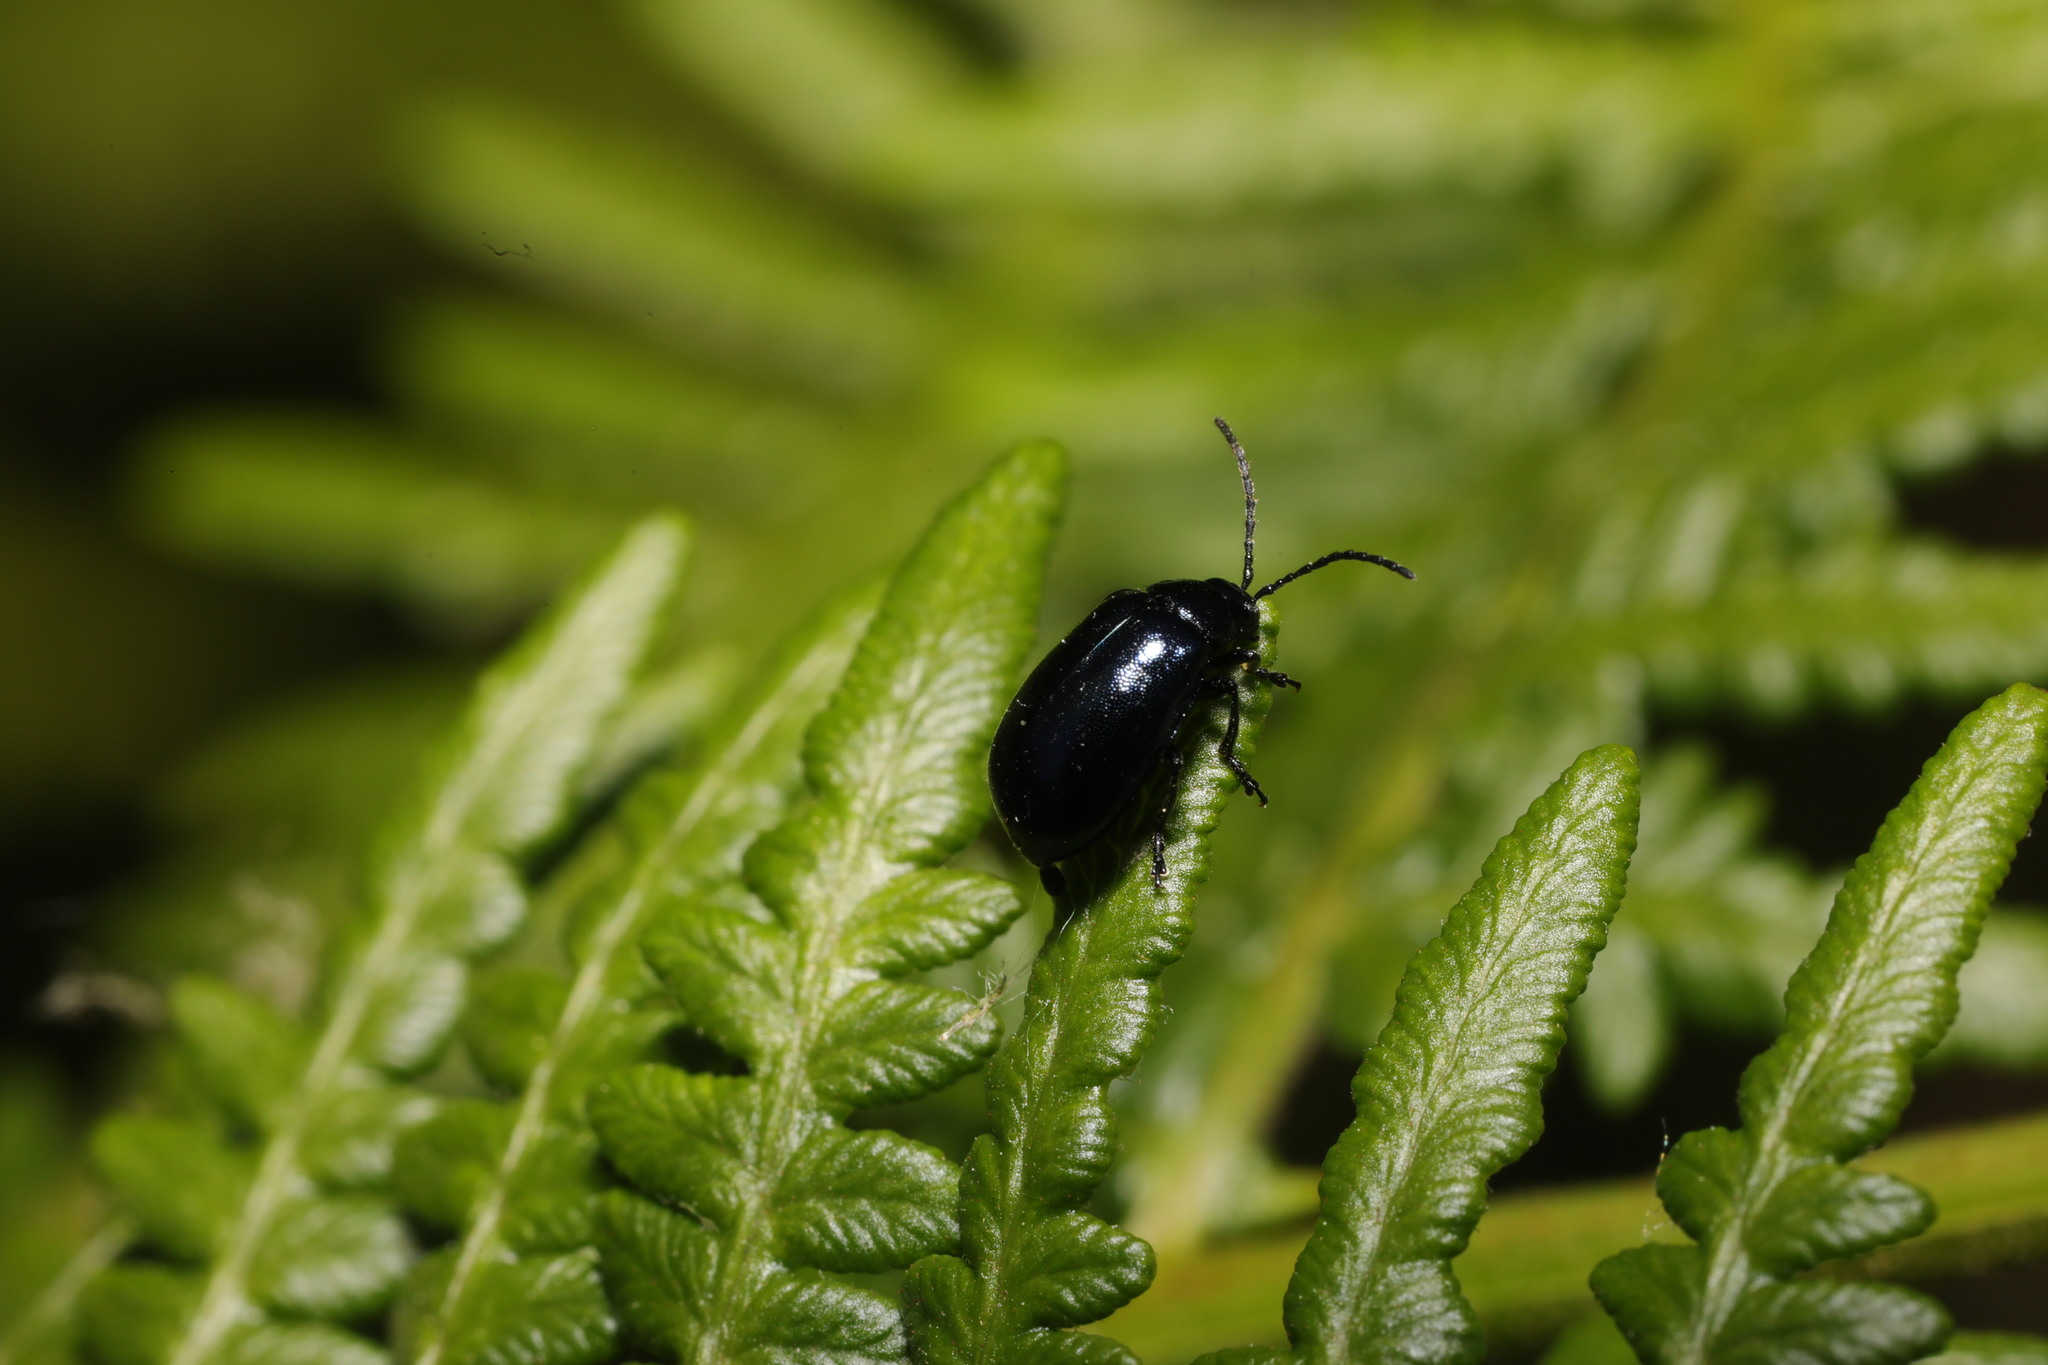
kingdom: Animalia
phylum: Arthropoda
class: Insecta
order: Coleoptera
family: Chrysomelidae
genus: Agelastica
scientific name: Agelastica alni
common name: Alder leaf beetle
